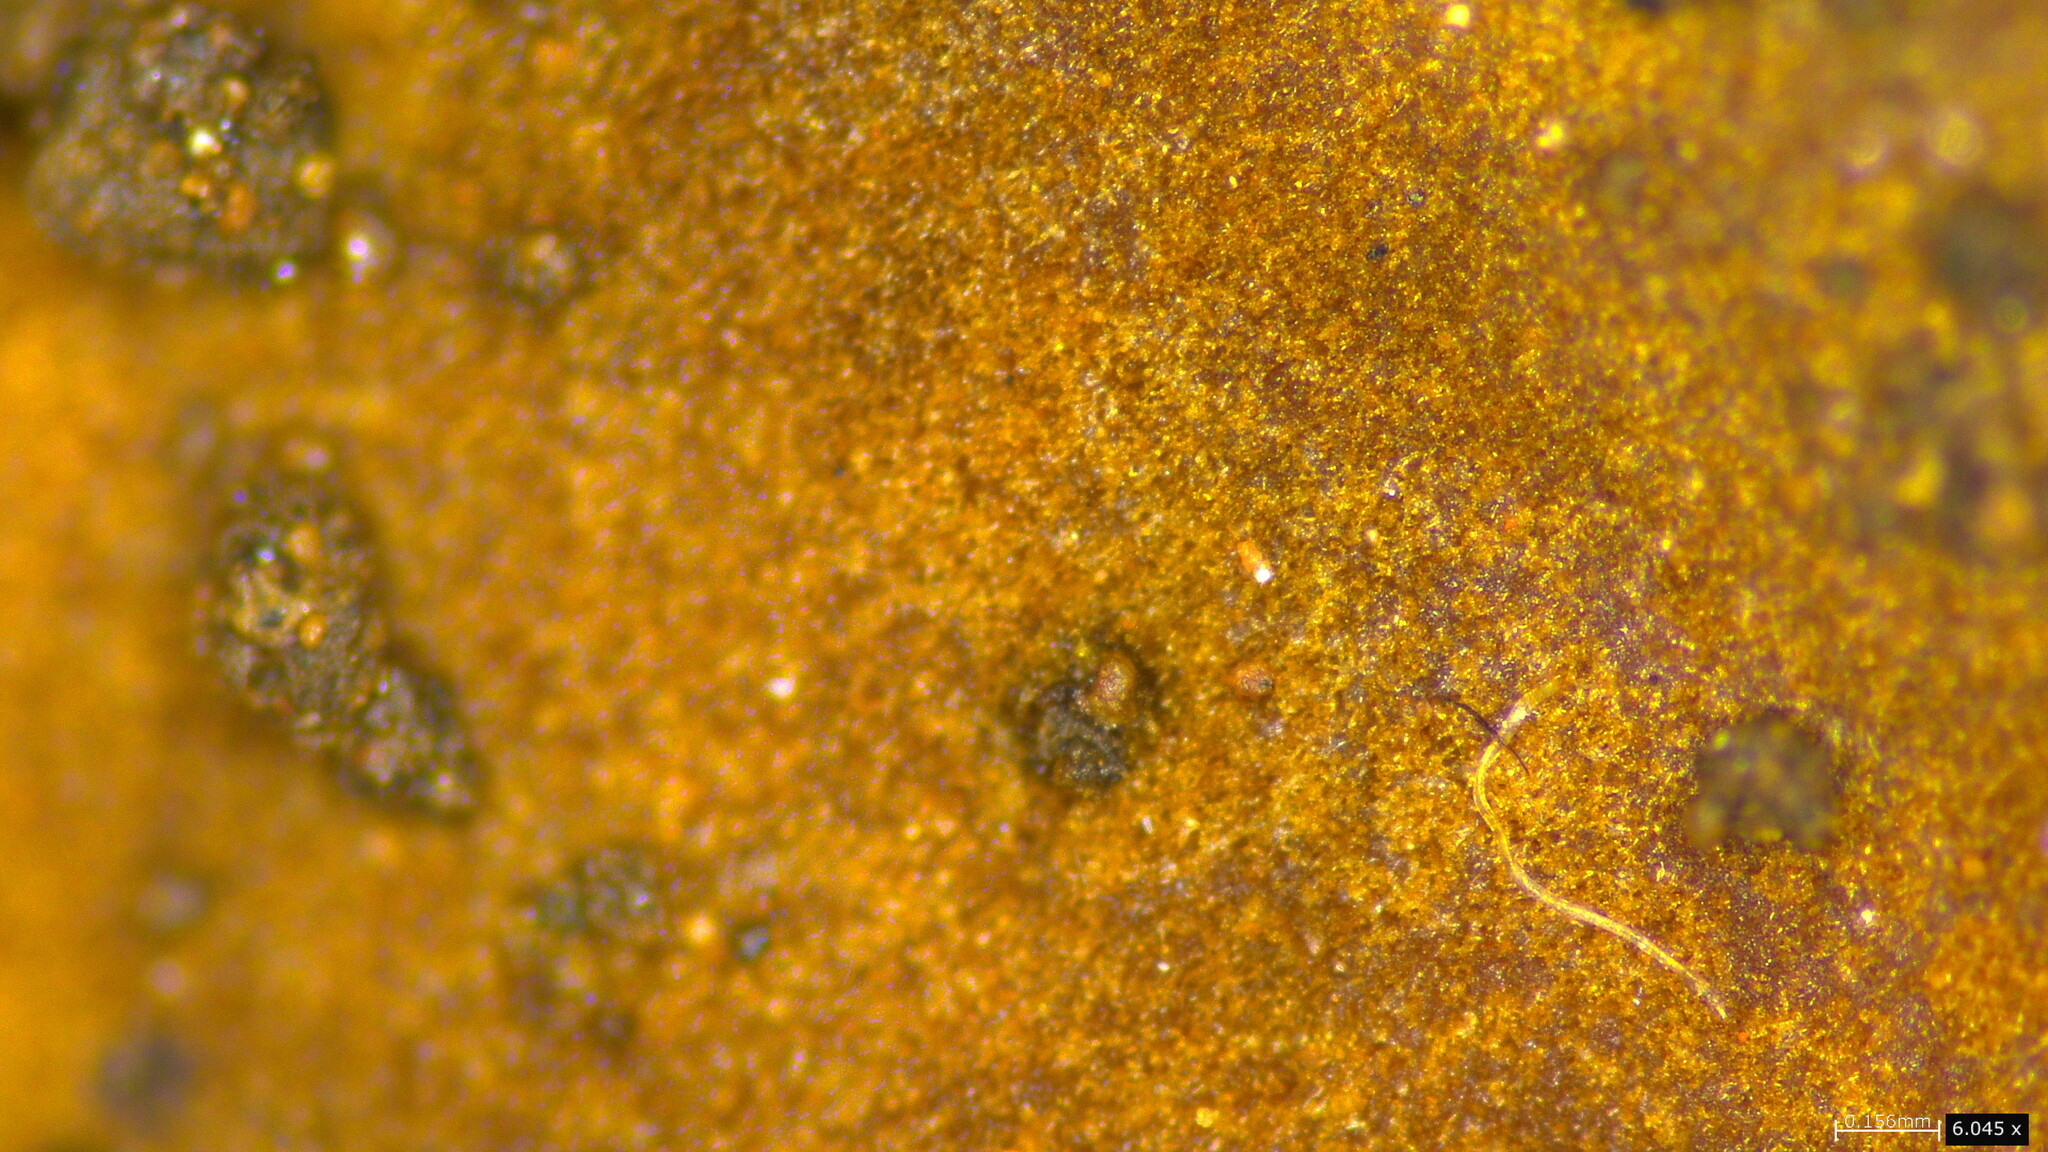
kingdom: Fungi
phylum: Basidiomycota
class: Agaricomycetes
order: Hymenochaetales
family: Hymenochaetaceae
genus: Fulvoderma
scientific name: Fulvoderma scaurum
